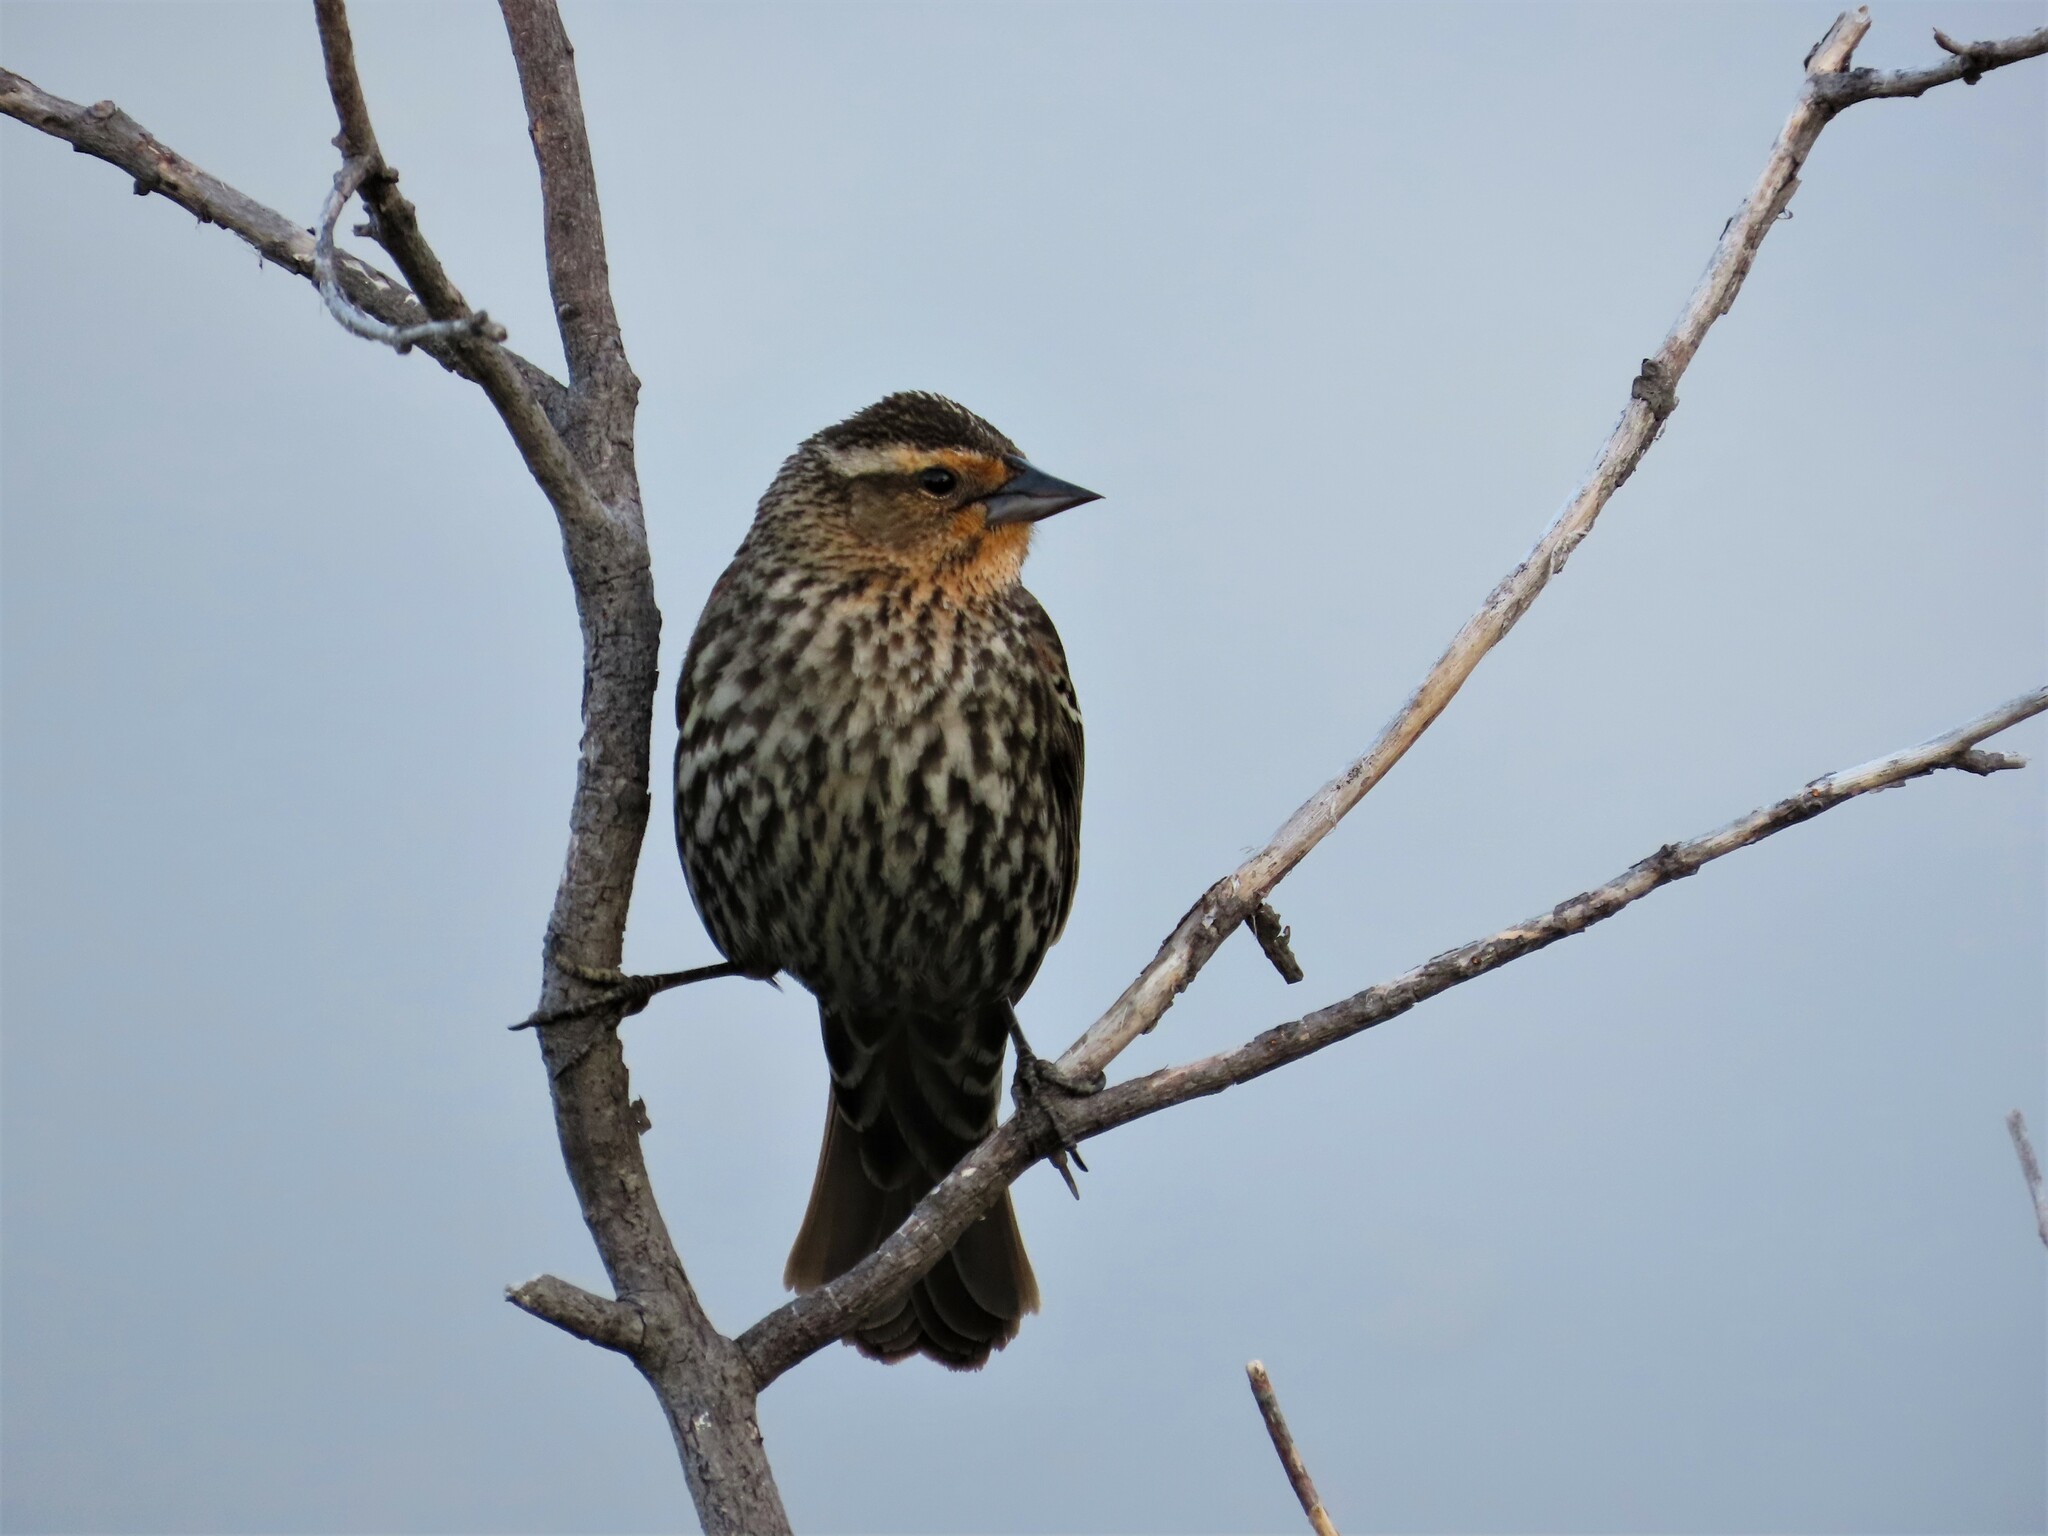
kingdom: Animalia
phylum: Chordata
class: Aves
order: Passeriformes
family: Icteridae
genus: Agelaius
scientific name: Agelaius phoeniceus
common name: Red-winged blackbird
